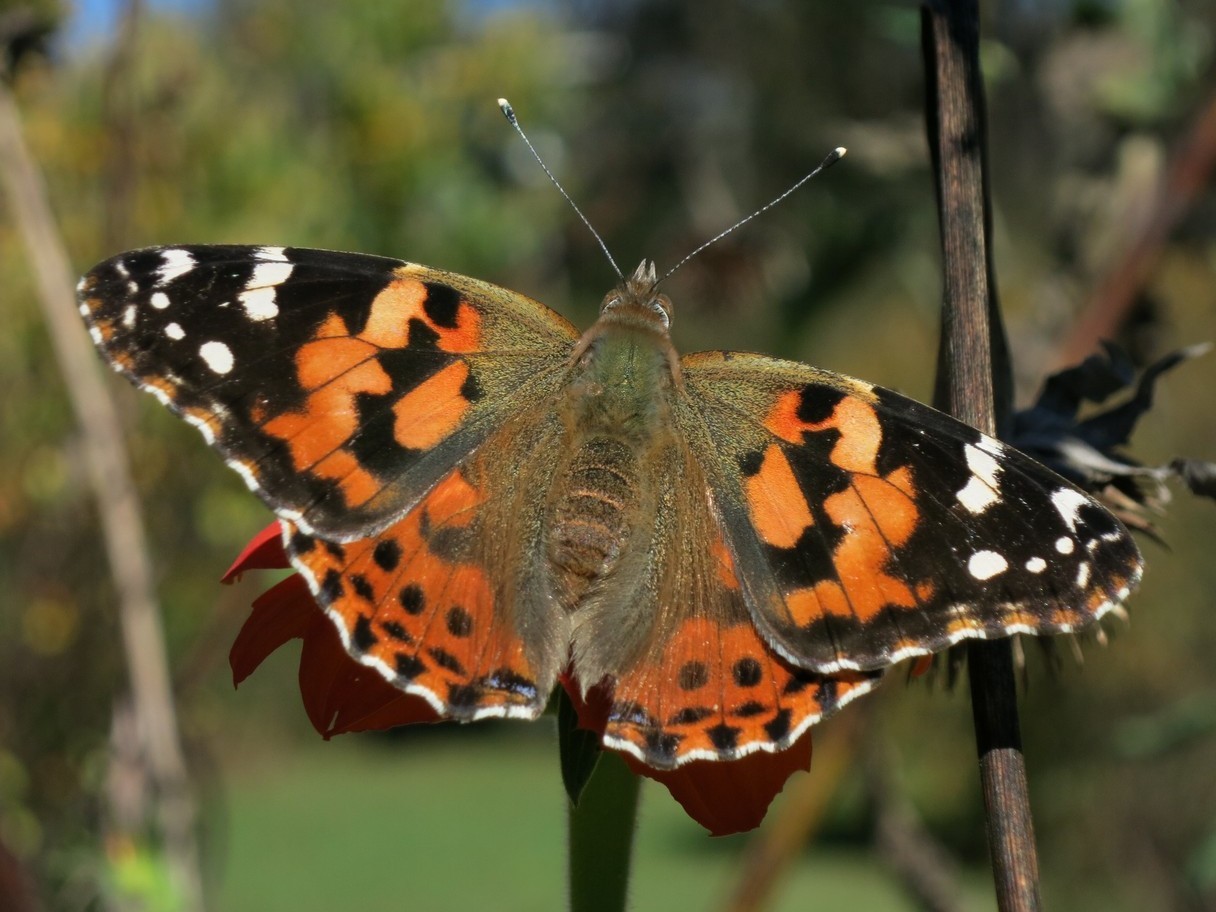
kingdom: Animalia
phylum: Arthropoda
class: Insecta
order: Lepidoptera
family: Nymphalidae
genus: Vanessa
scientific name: Vanessa cardui
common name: Painted lady
